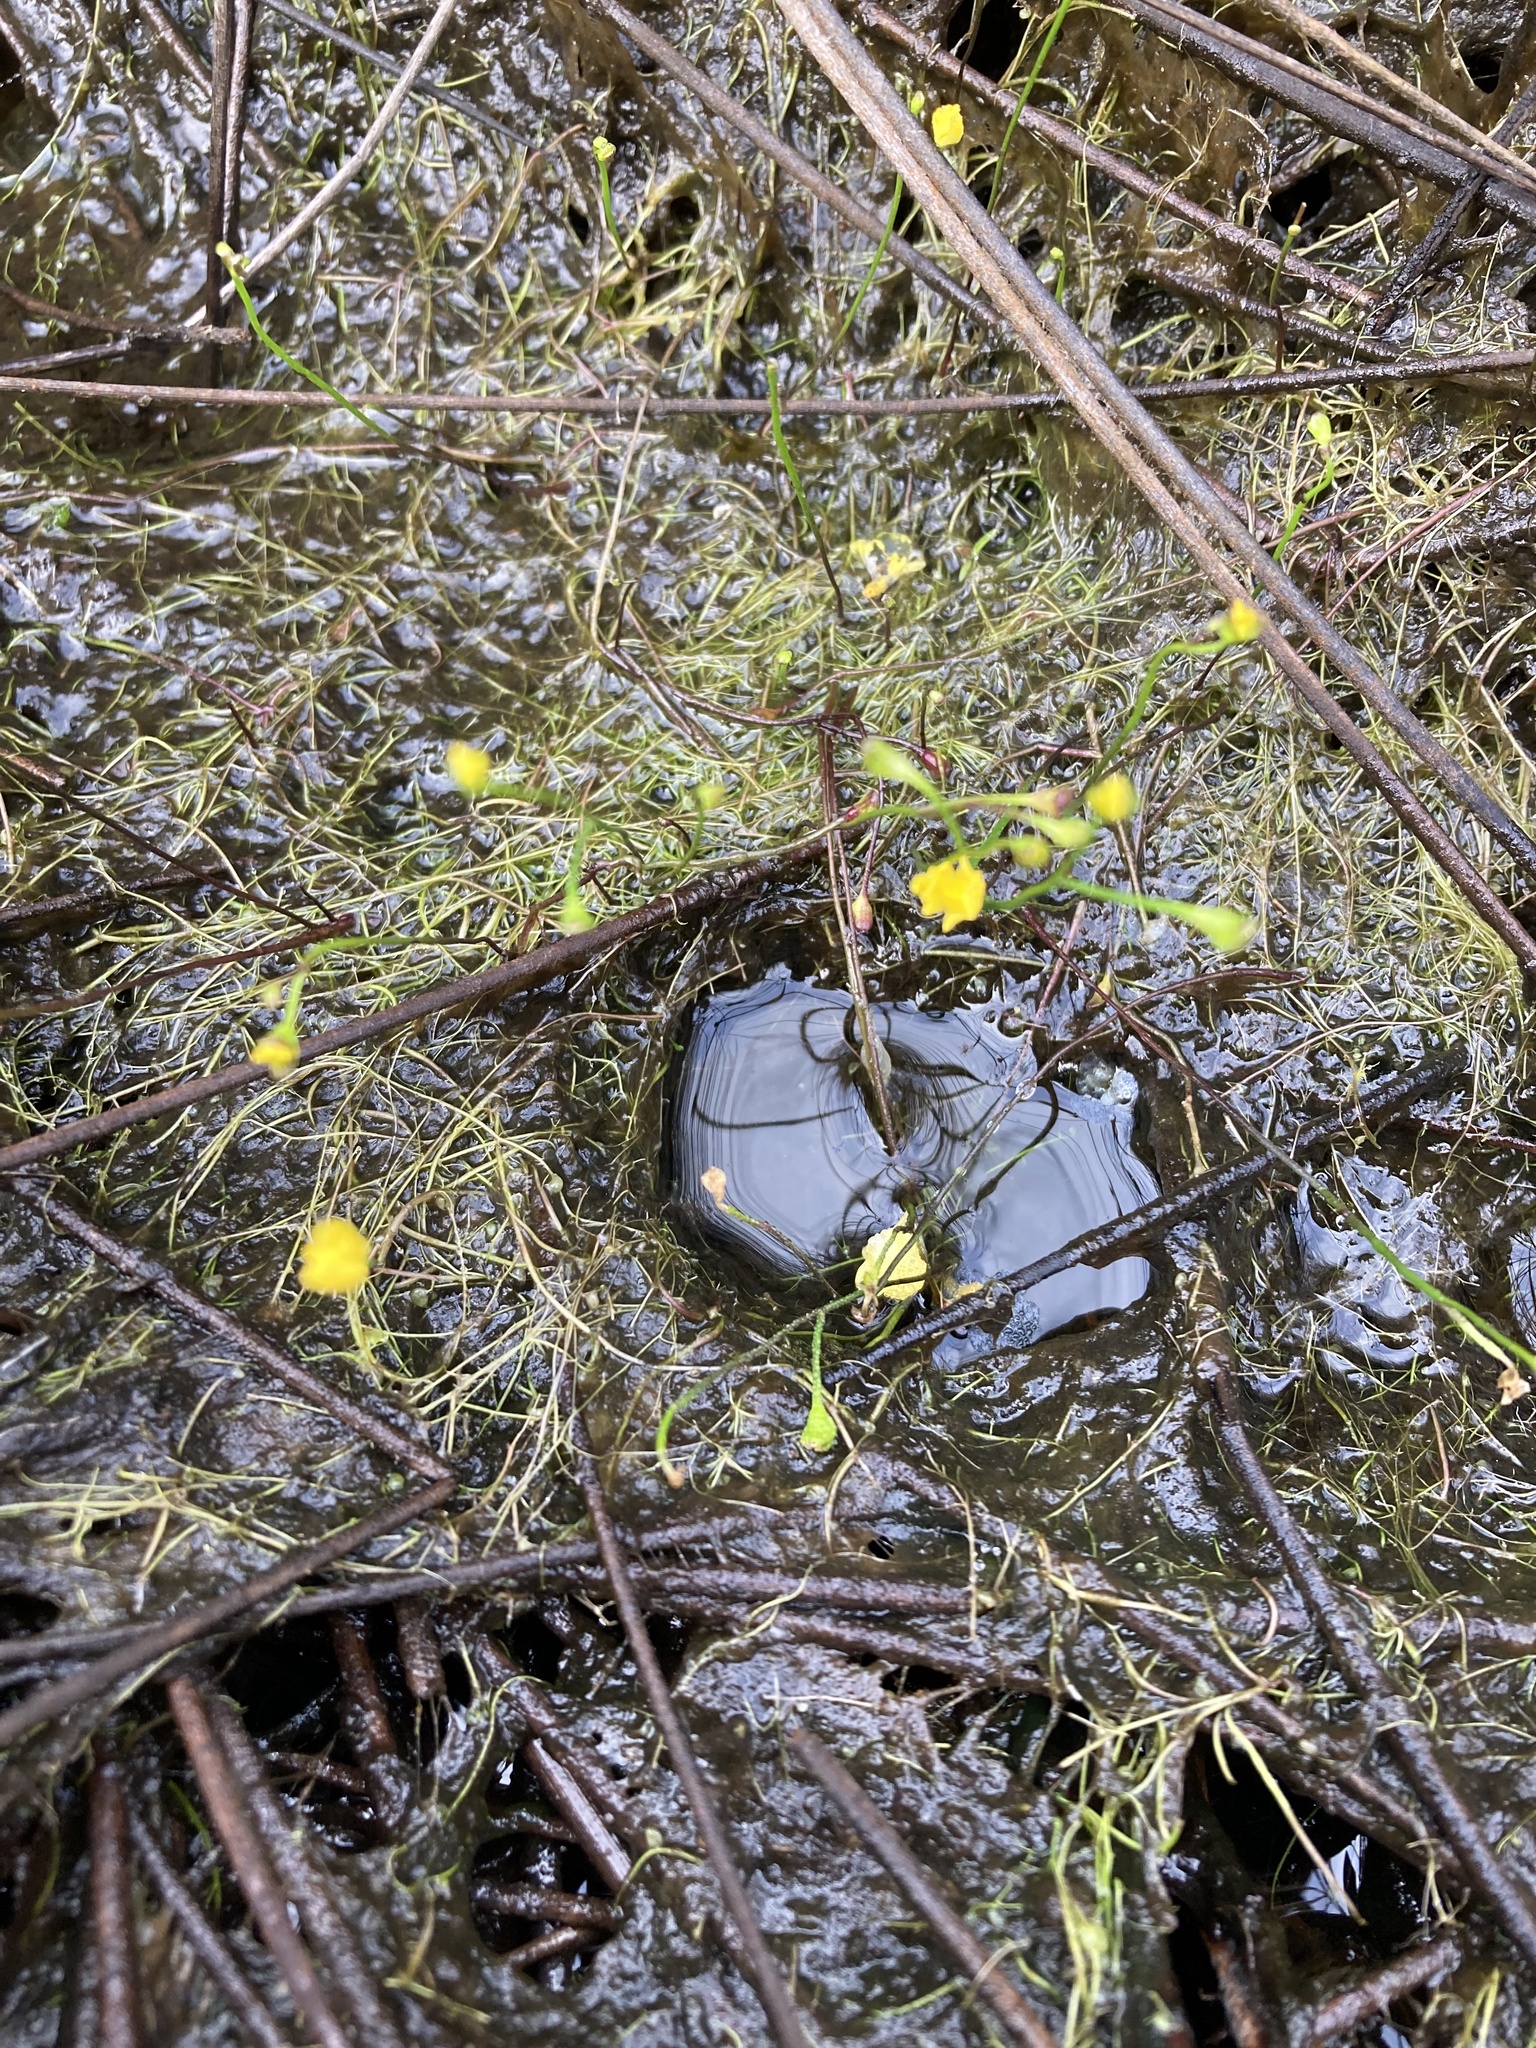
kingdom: Plantae
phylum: Tracheophyta
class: Magnoliopsida
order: Lamiales
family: Lentibulariaceae
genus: Utricularia
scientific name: Utricularia gibba
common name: Humped bladderwort
